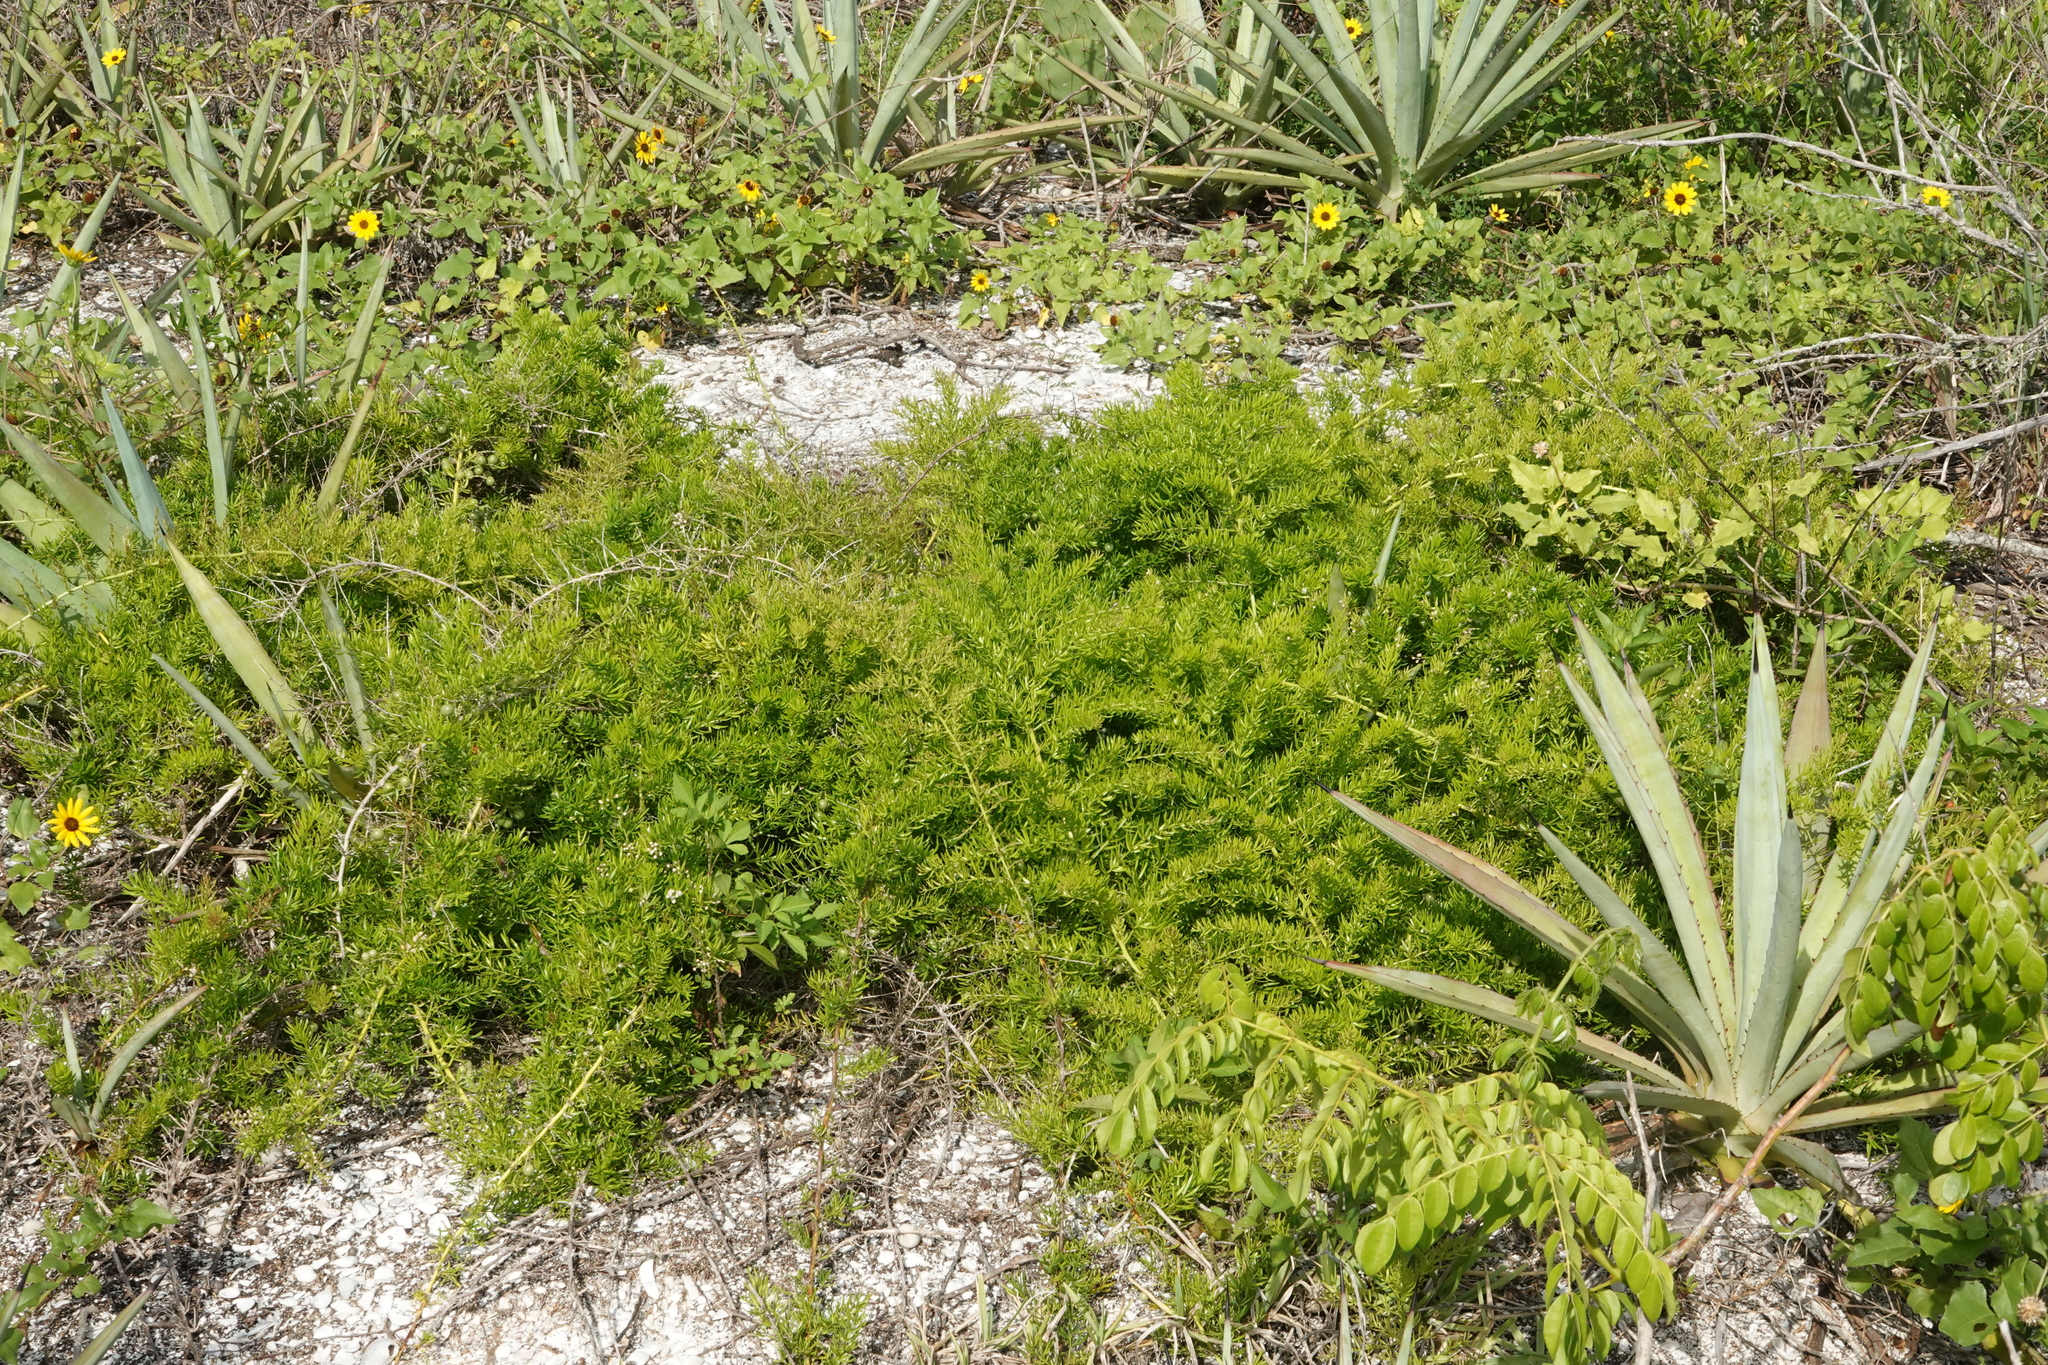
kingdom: Plantae
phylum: Tracheophyta
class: Liliopsida
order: Asparagales
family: Asparagaceae
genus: Asparagus
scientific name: Asparagus aethiopicus
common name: Sprenger's asparagus fern
